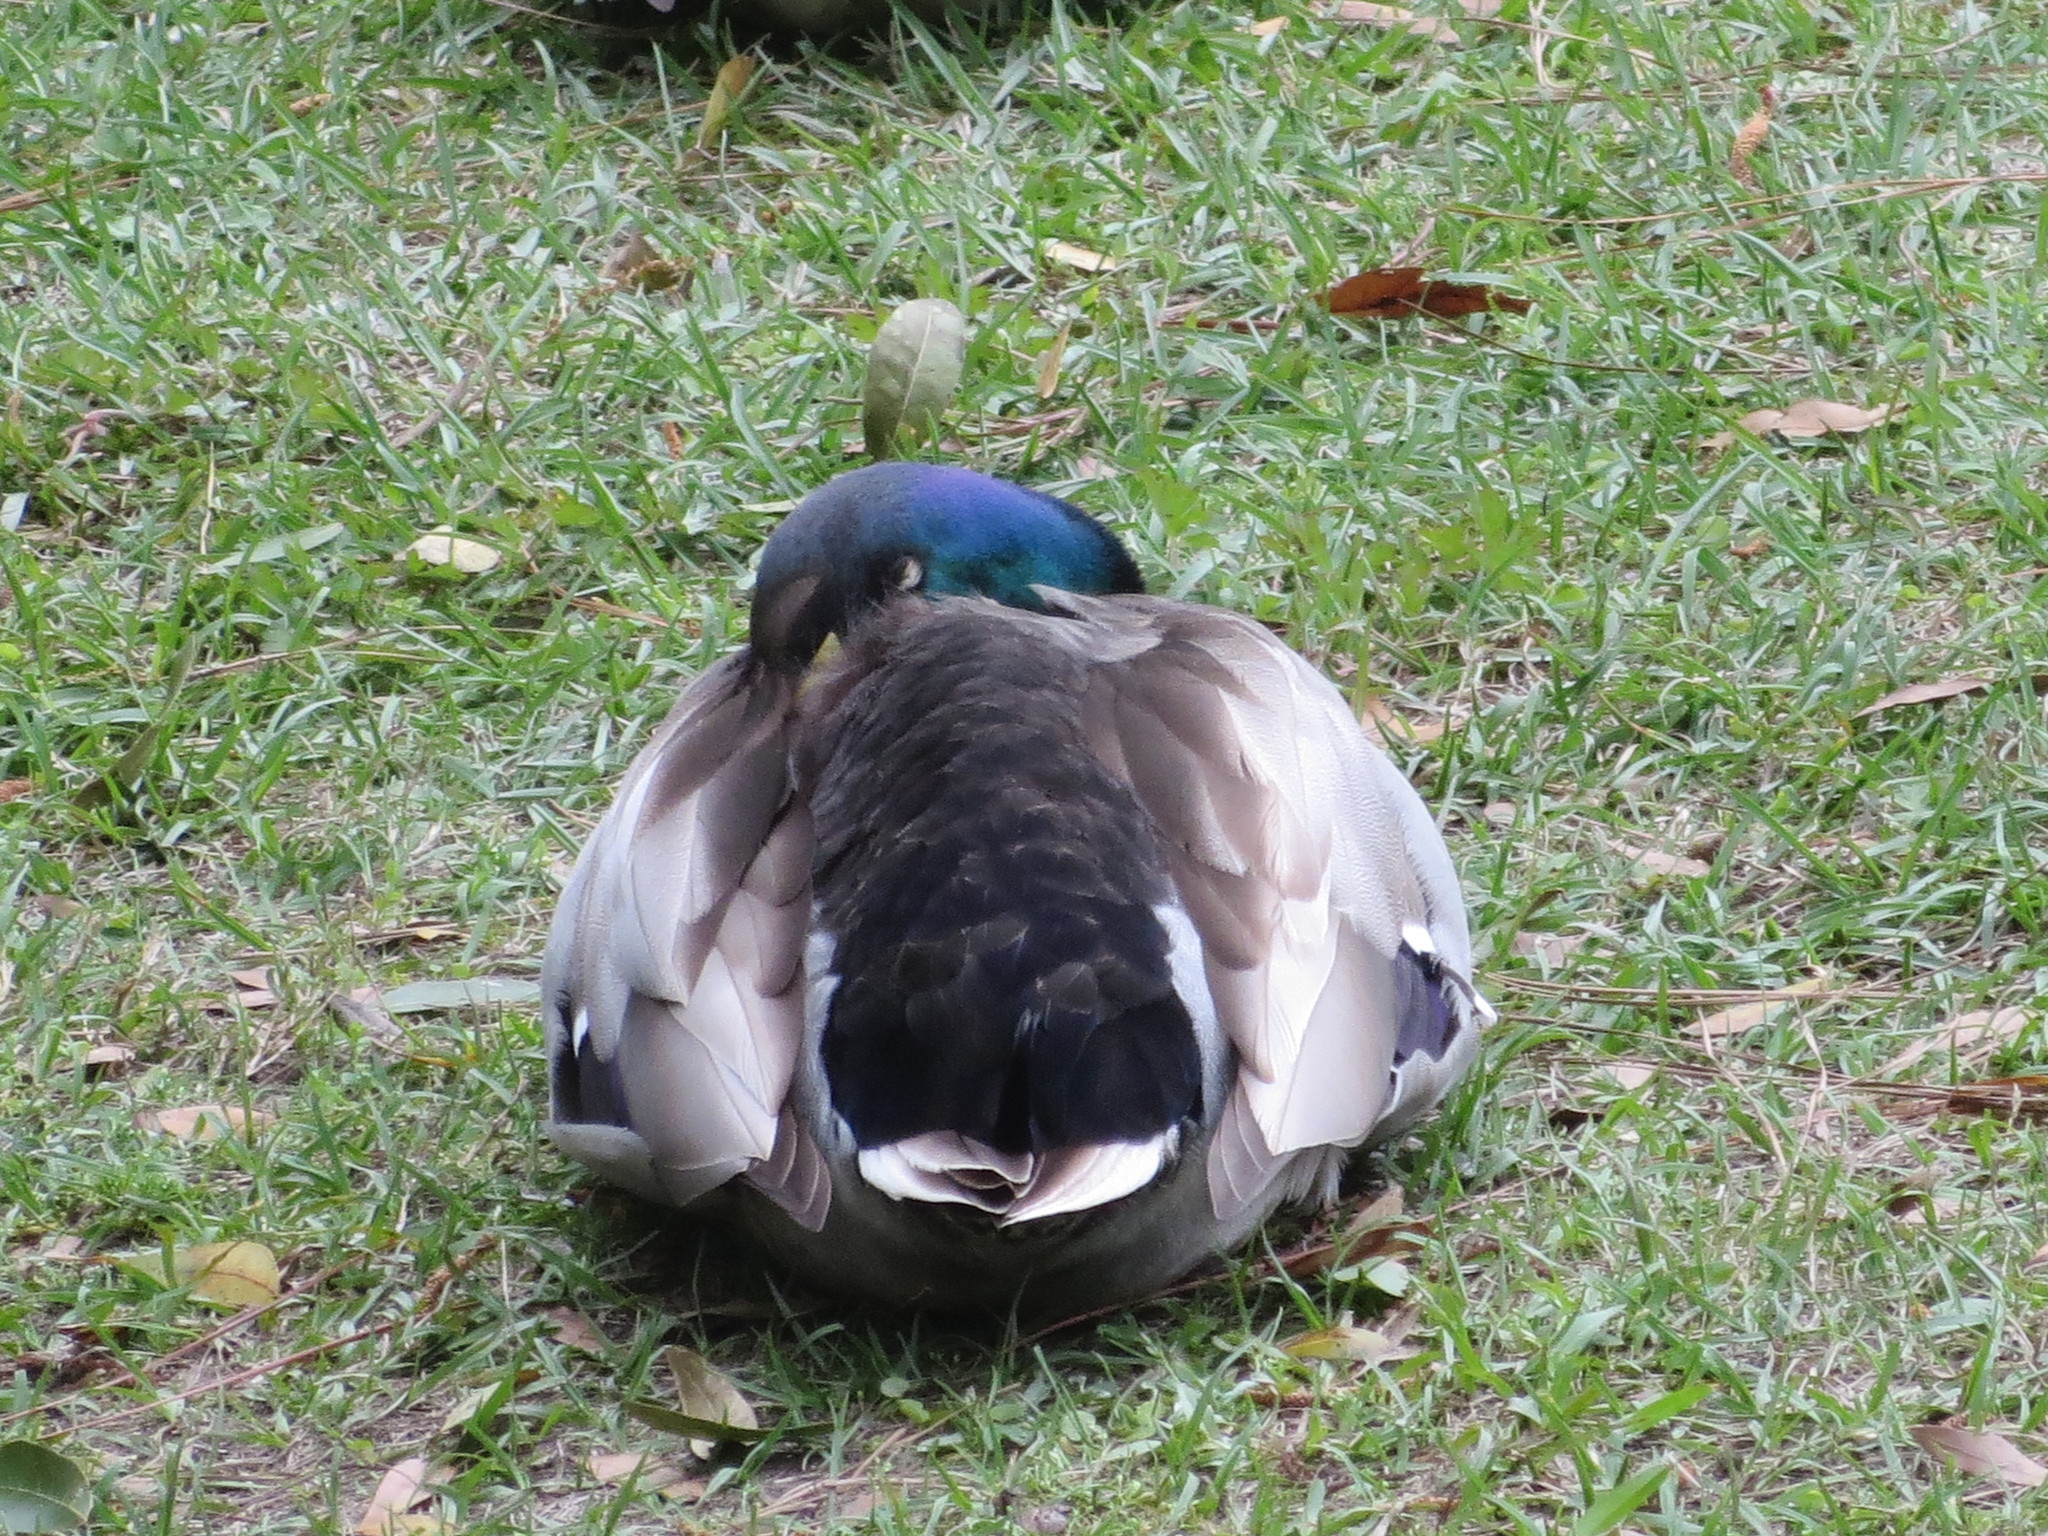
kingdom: Animalia
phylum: Chordata
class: Aves
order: Anseriformes
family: Anatidae
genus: Anas
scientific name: Anas platyrhynchos
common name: Mallard
